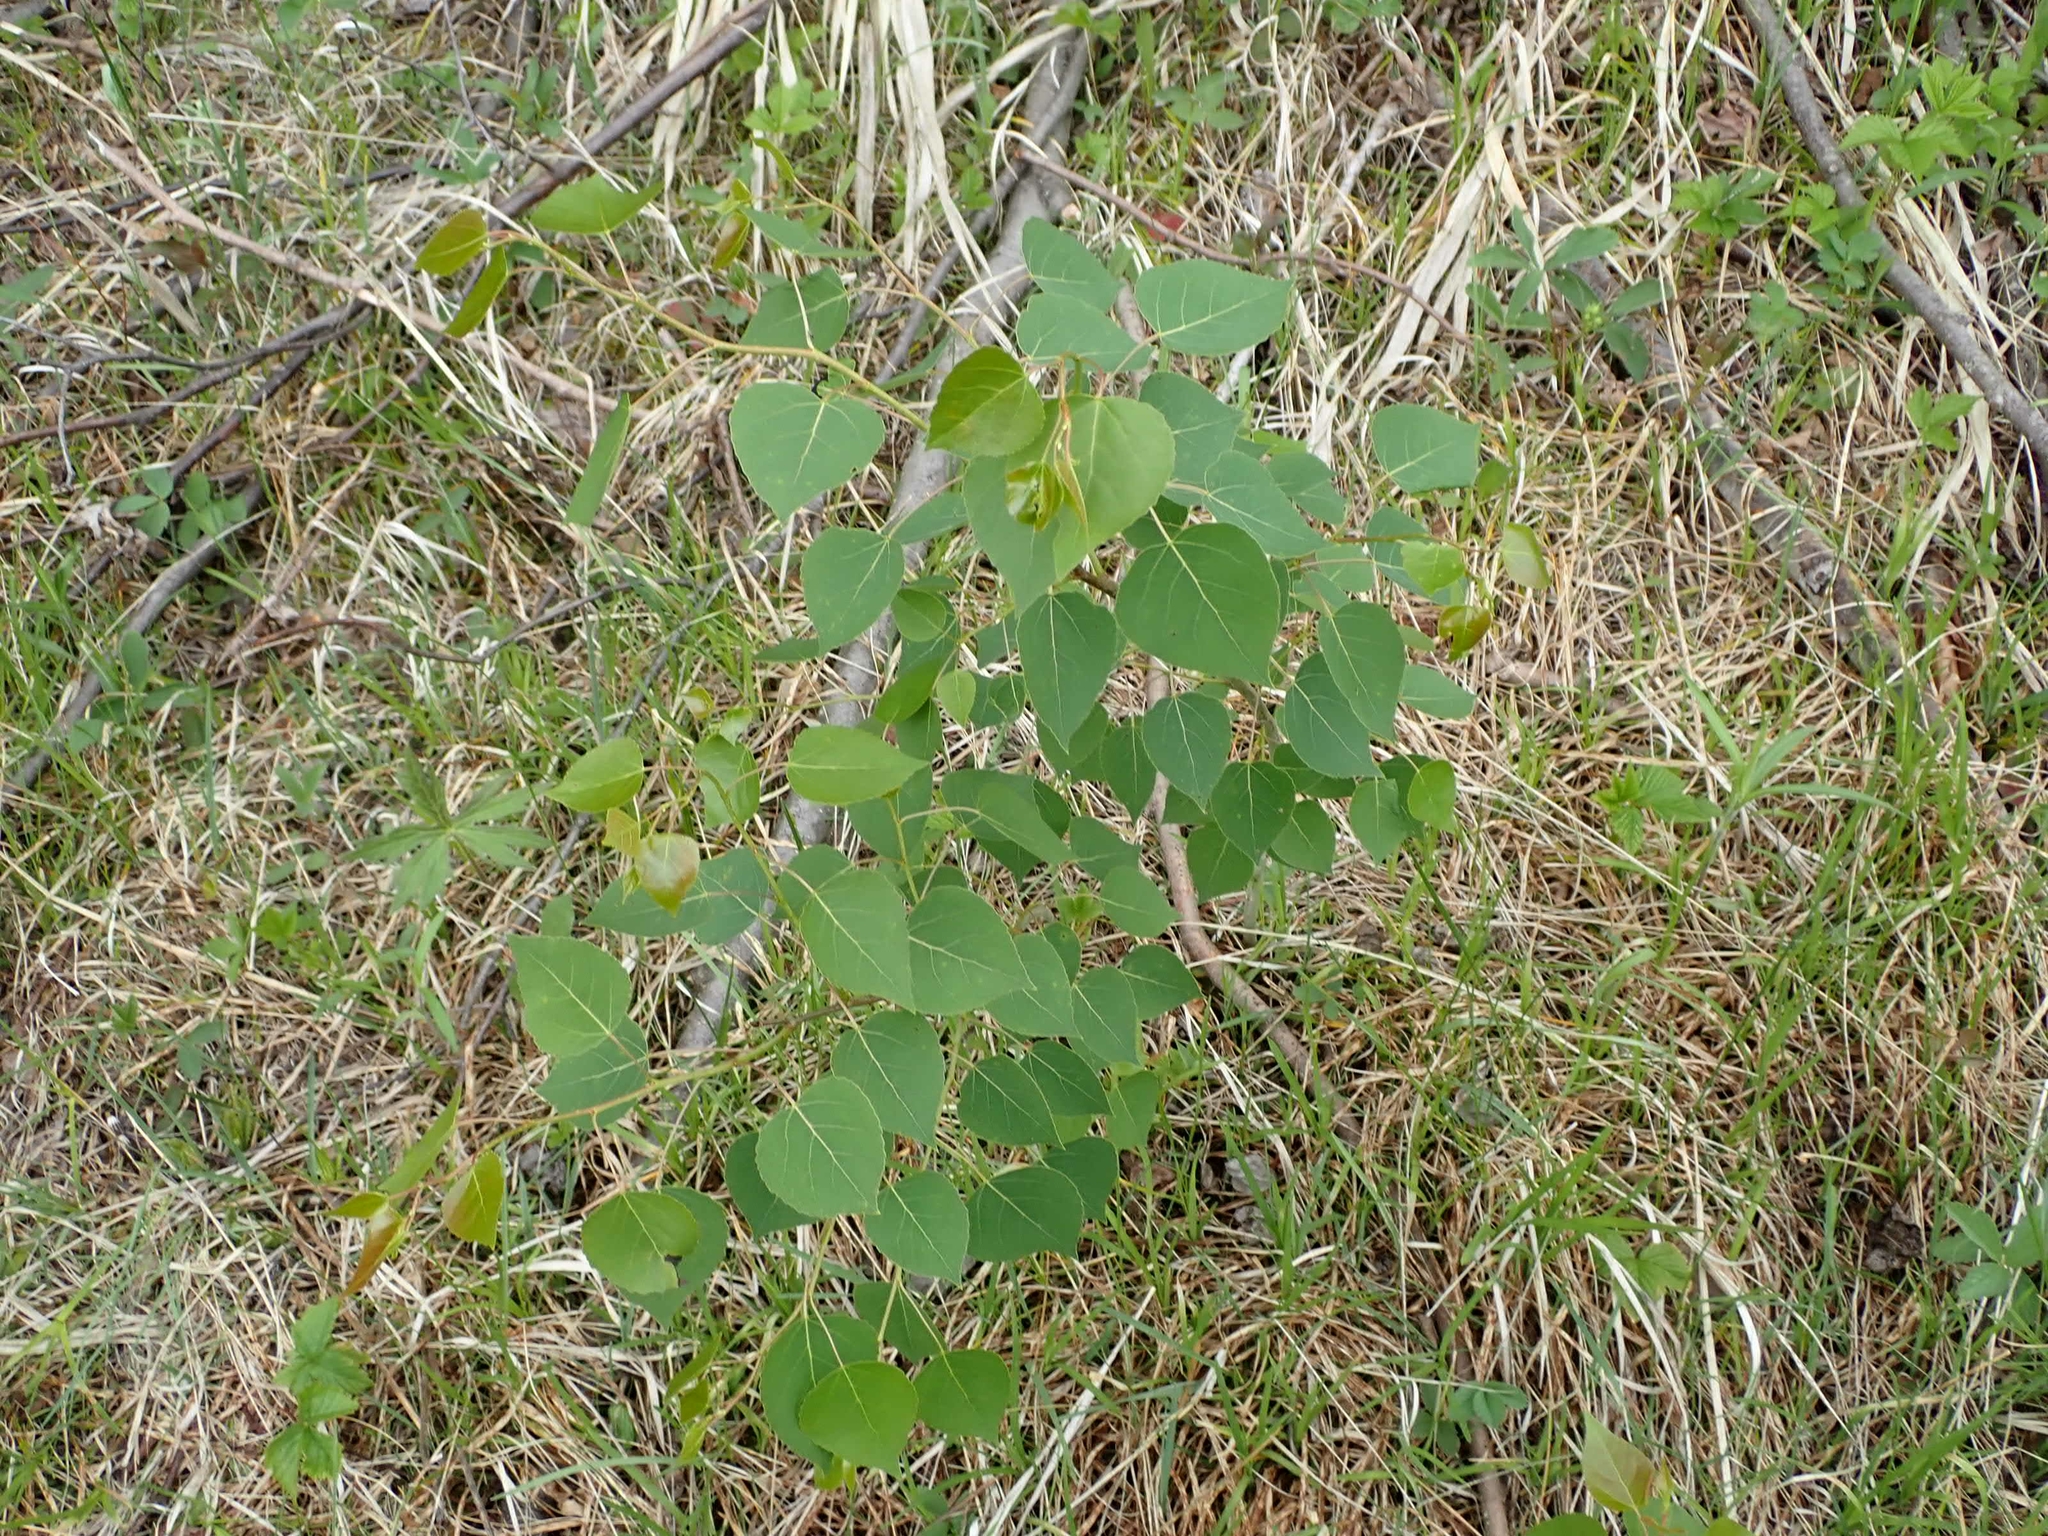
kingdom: Plantae
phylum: Tracheophyta
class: Magnoliopsida
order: Malpighiales
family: Salicaceae
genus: Populus
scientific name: Populus tremuloides
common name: Quaking aspen
